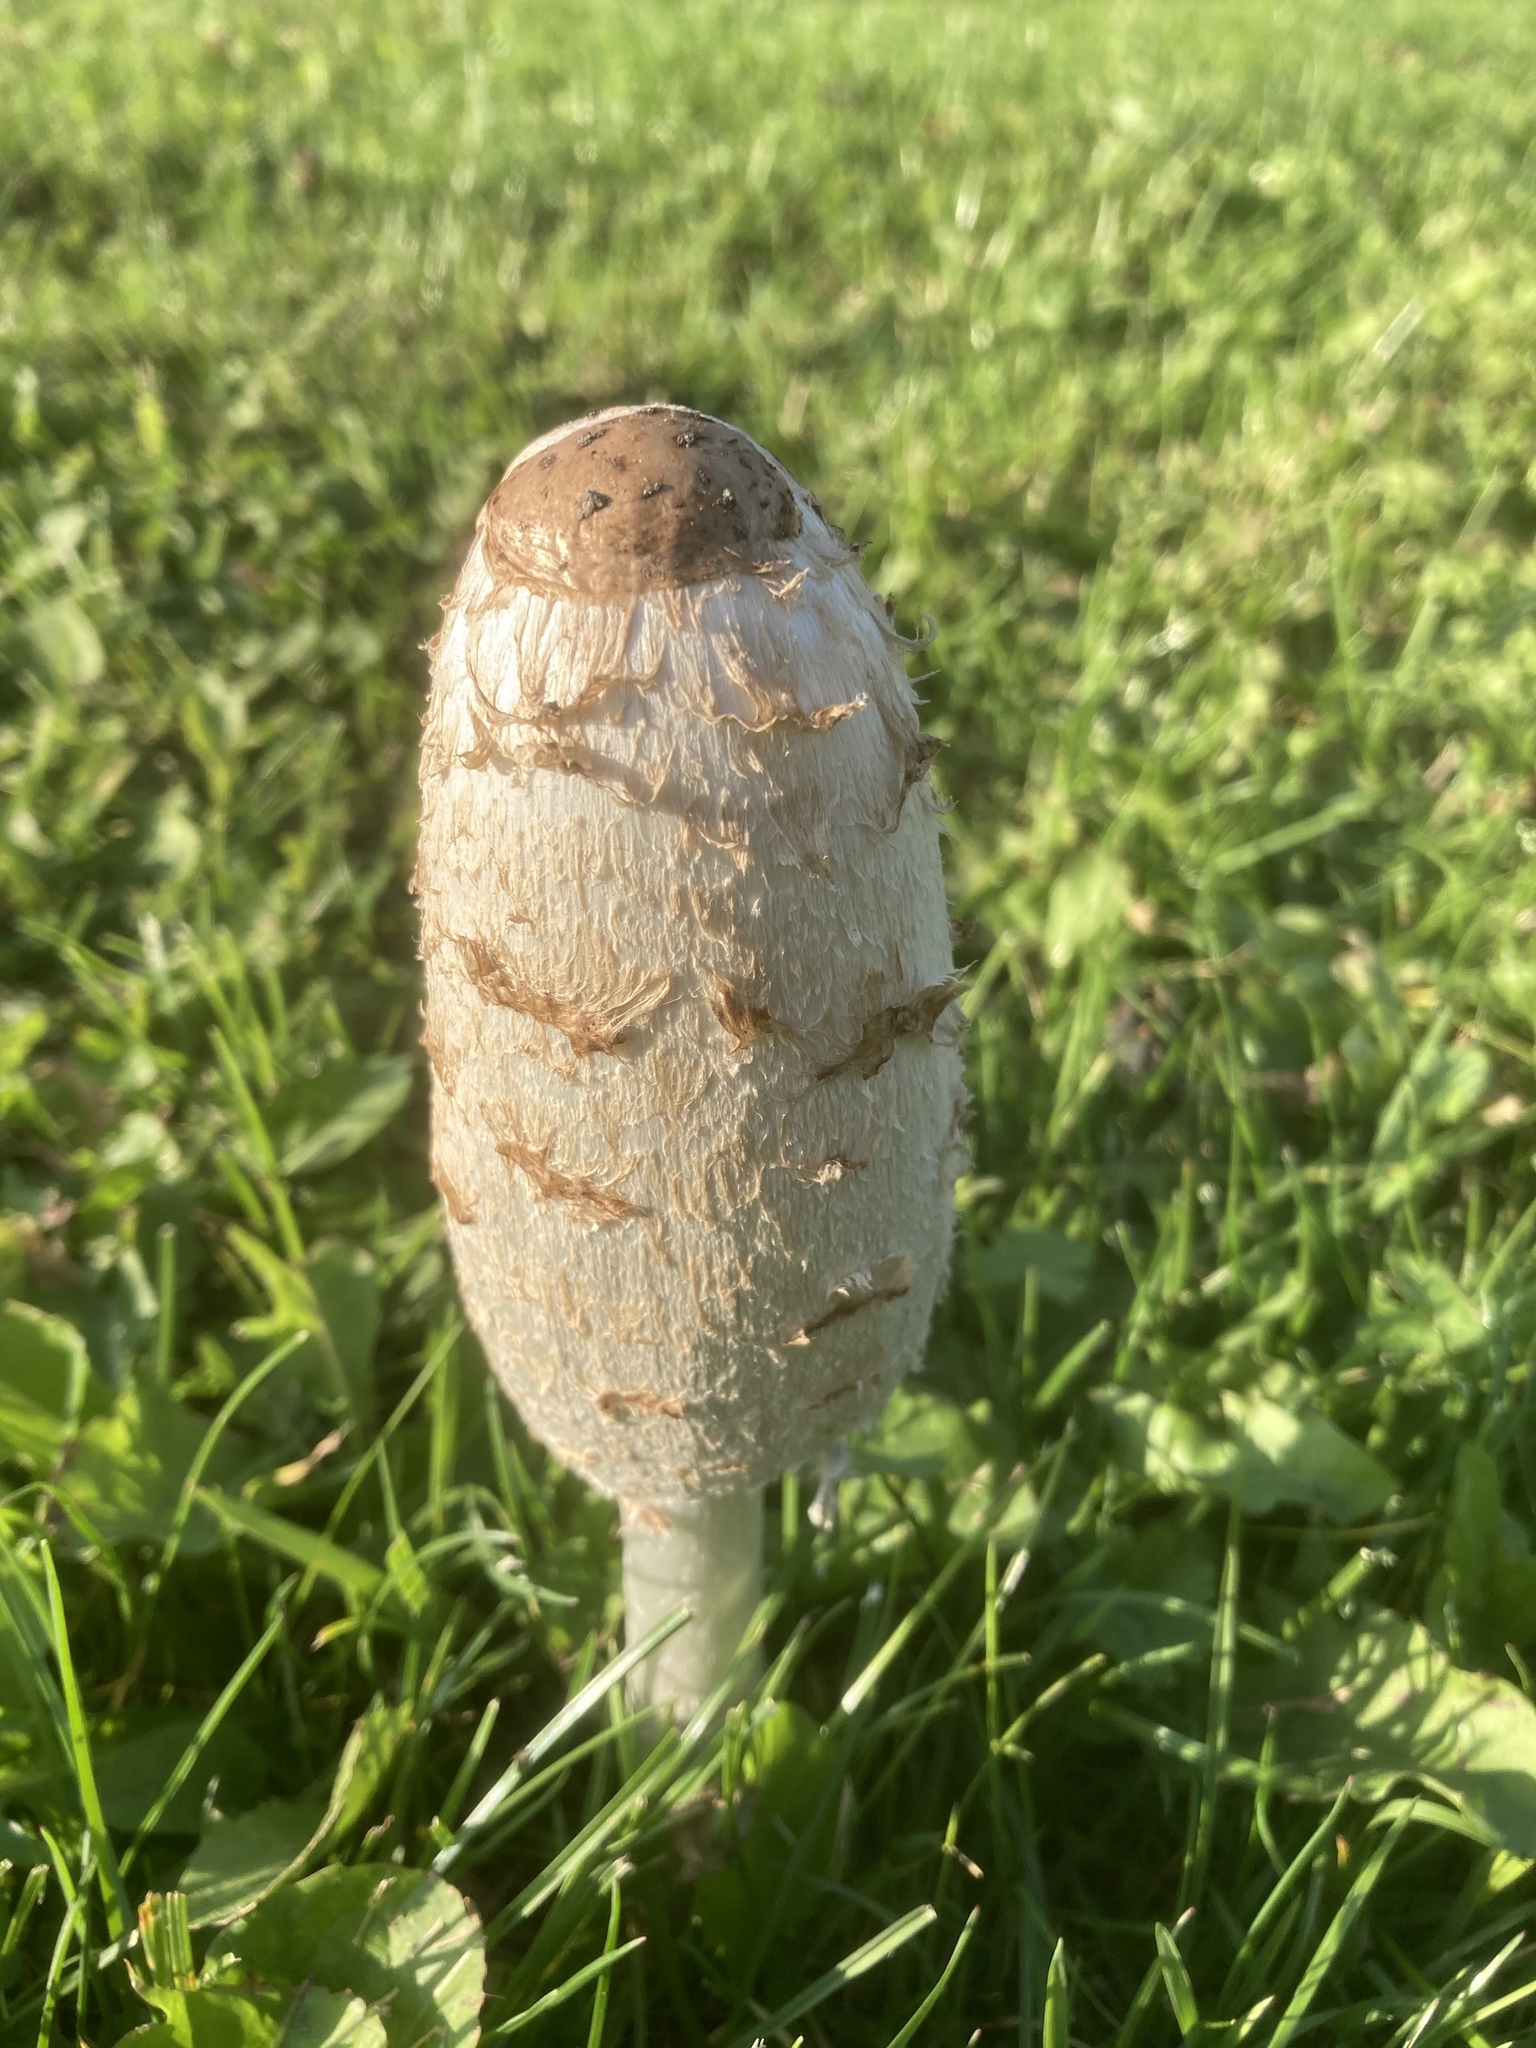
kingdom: Fungi
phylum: Basidiomycota
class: Agaricomycetes
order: Agaricales
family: Agaricaceae
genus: Coprinus
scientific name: Coprinus comatus
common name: Lawyer's wig
